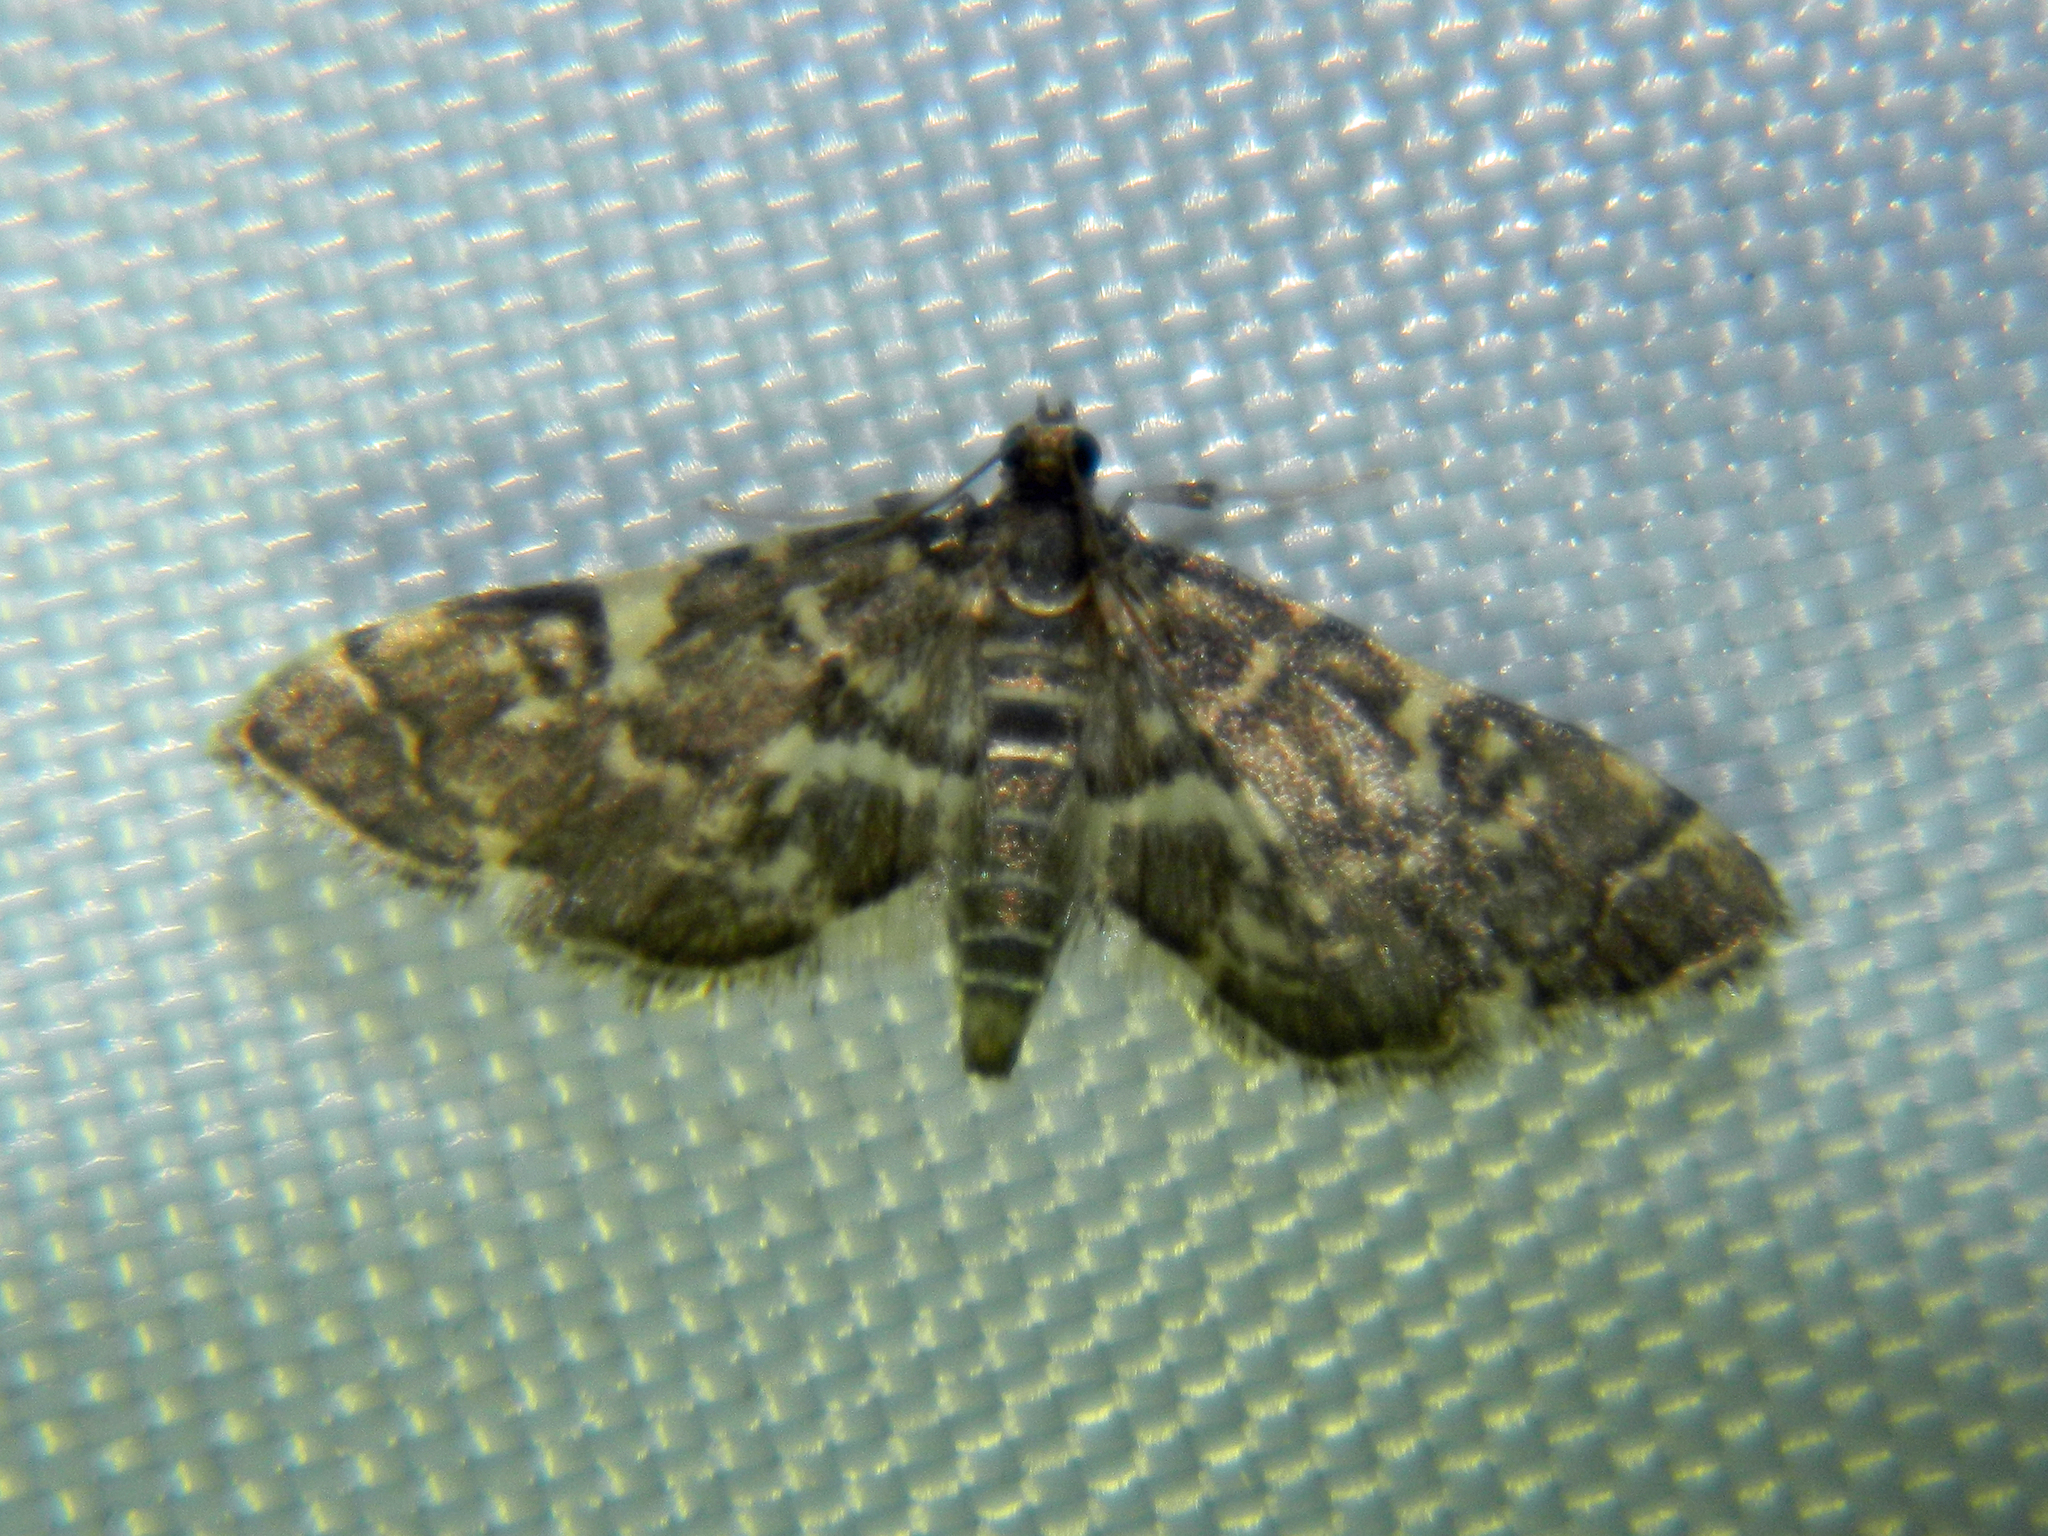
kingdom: Animalia
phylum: Arthropoda
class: Insecta
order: Lepidoptera
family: Crambidae
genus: Anageshna
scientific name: Anageshna primordialis
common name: Yellow-spotted webworm moth
